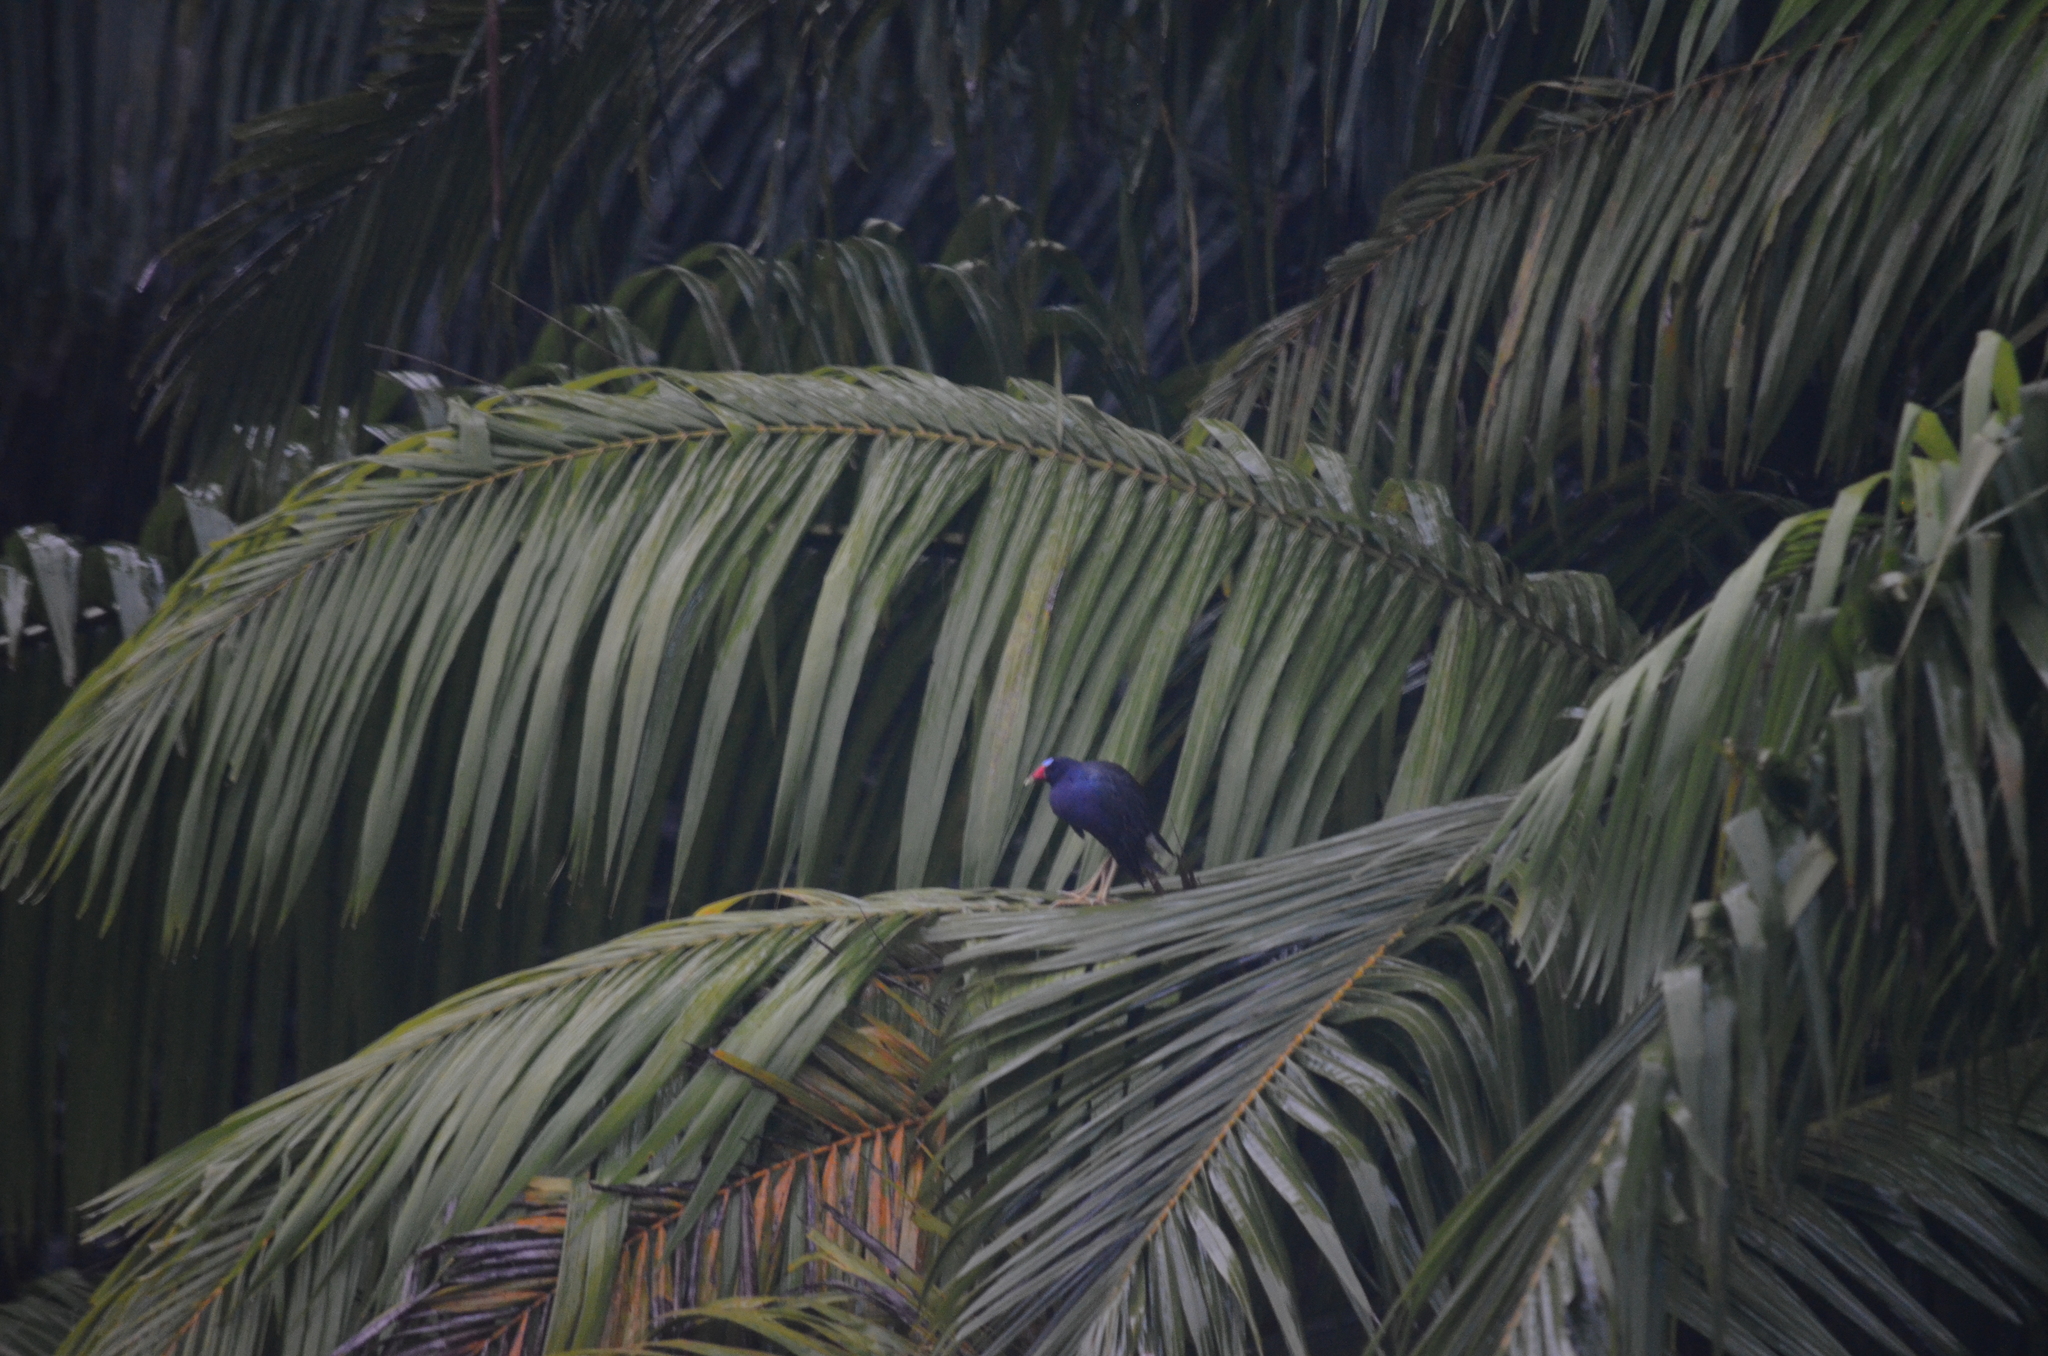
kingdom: Animalia
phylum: Chordata
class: Aves
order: Gruiformes
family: Rallidae
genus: Porphyrio
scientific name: Porphyrio martinica
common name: Purple gallinule
